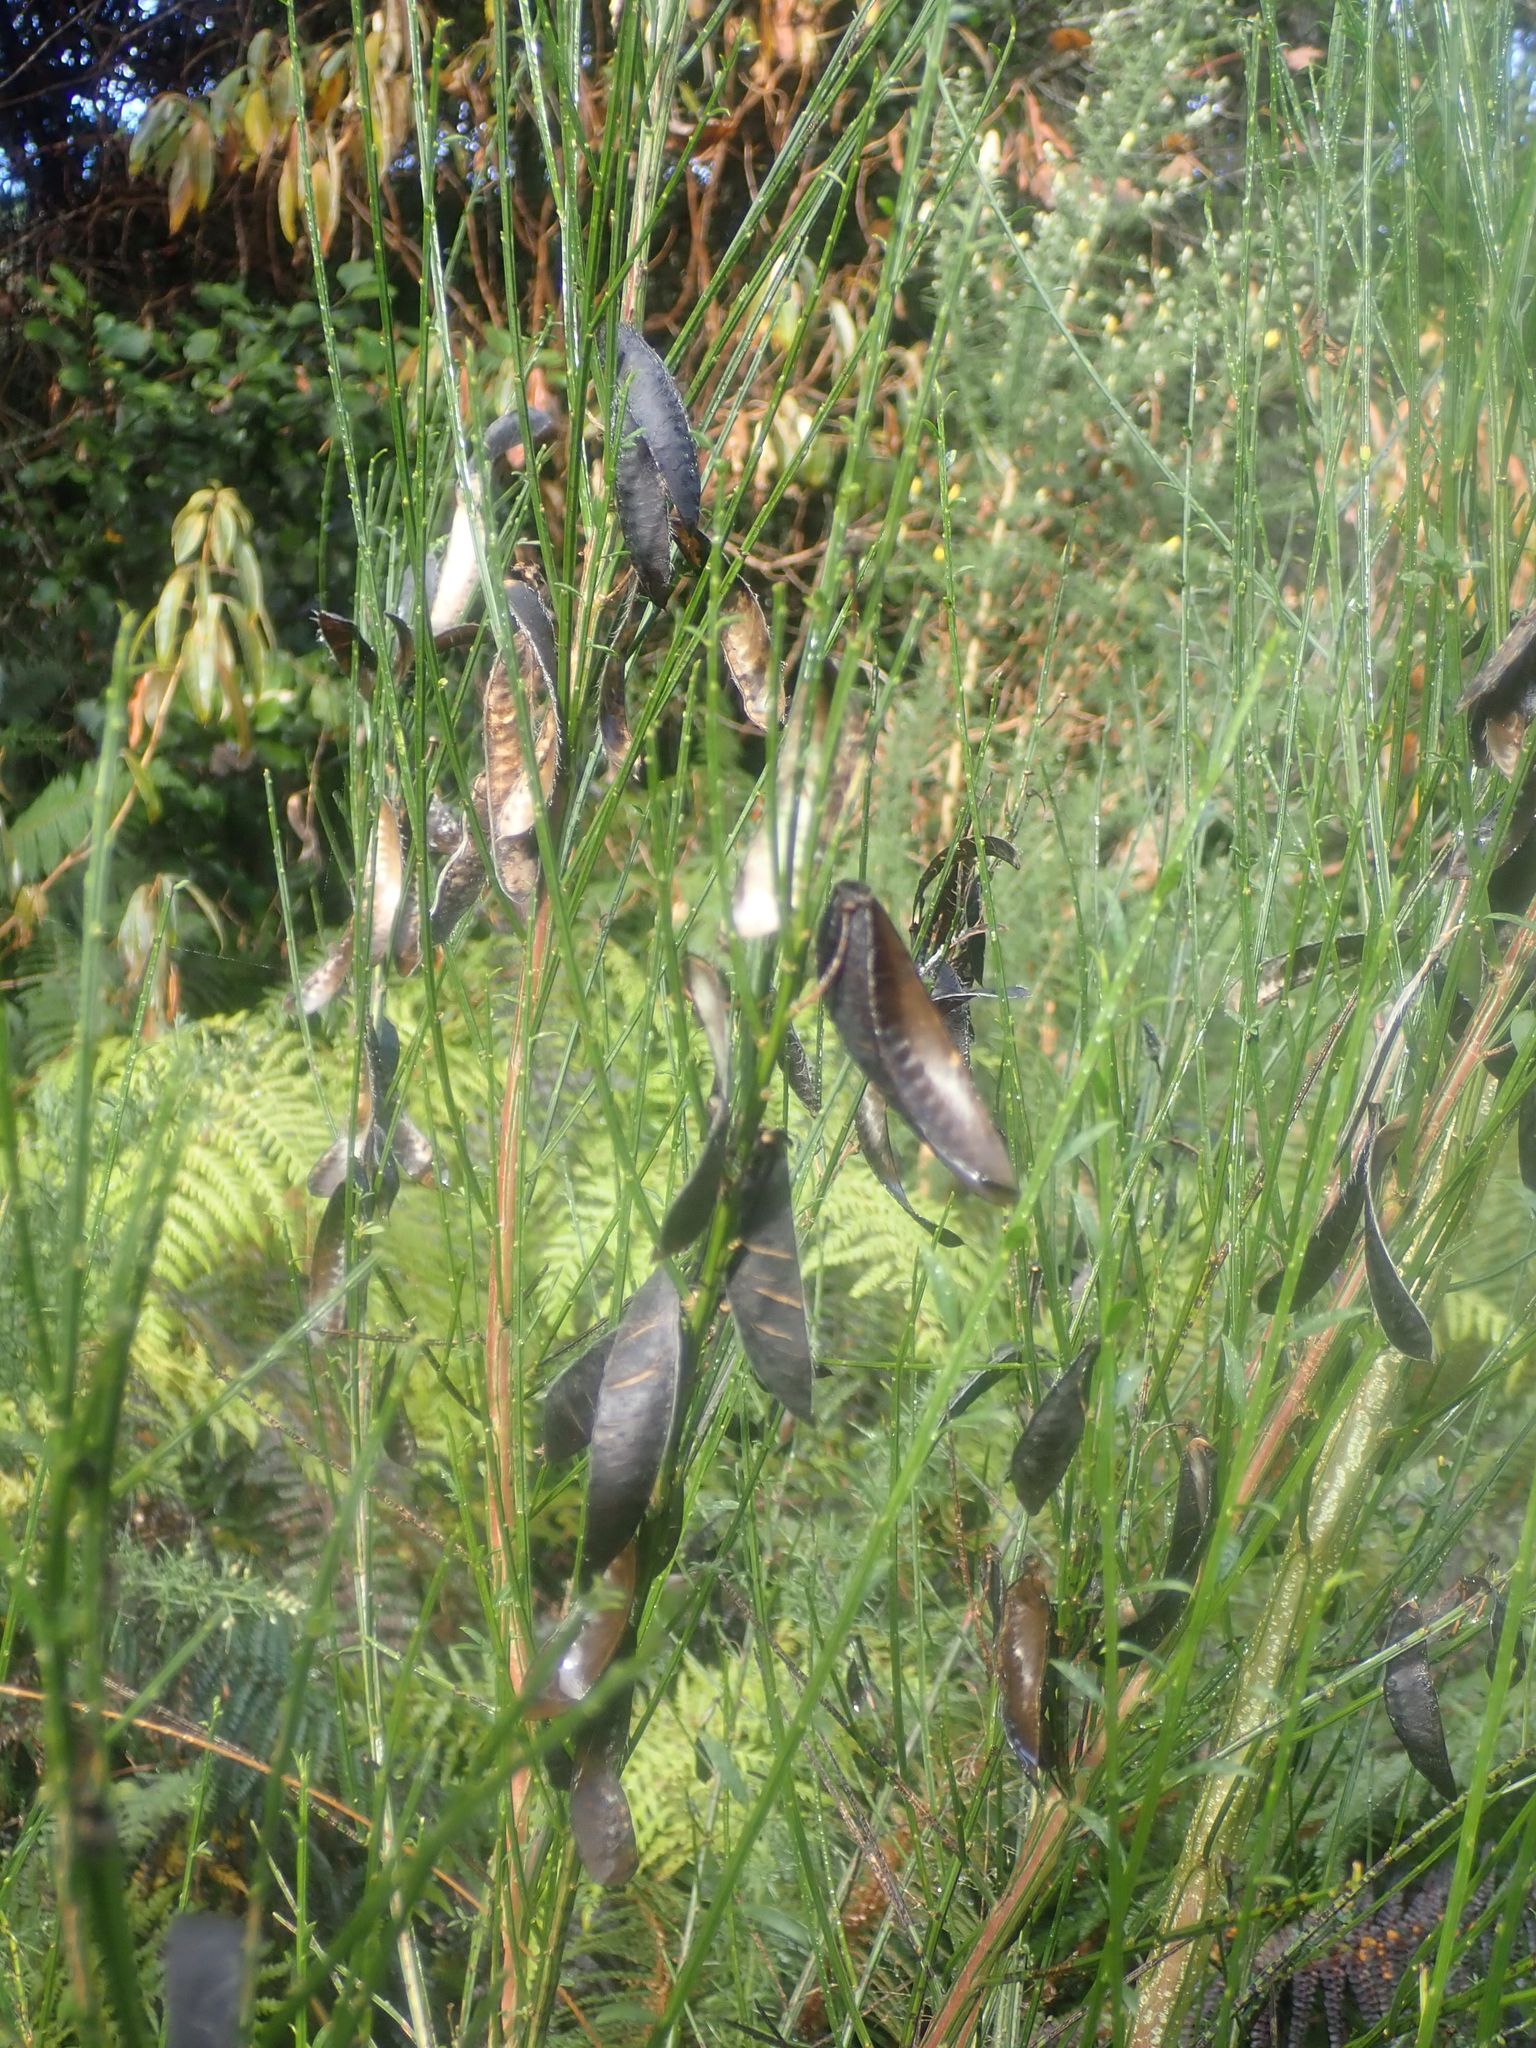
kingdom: Plantae
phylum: Tracheophyta
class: Magnoliopsida
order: Fabales
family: Fabaceae
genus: Cytisus
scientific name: Cytisus scoparius
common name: Scotch broom
